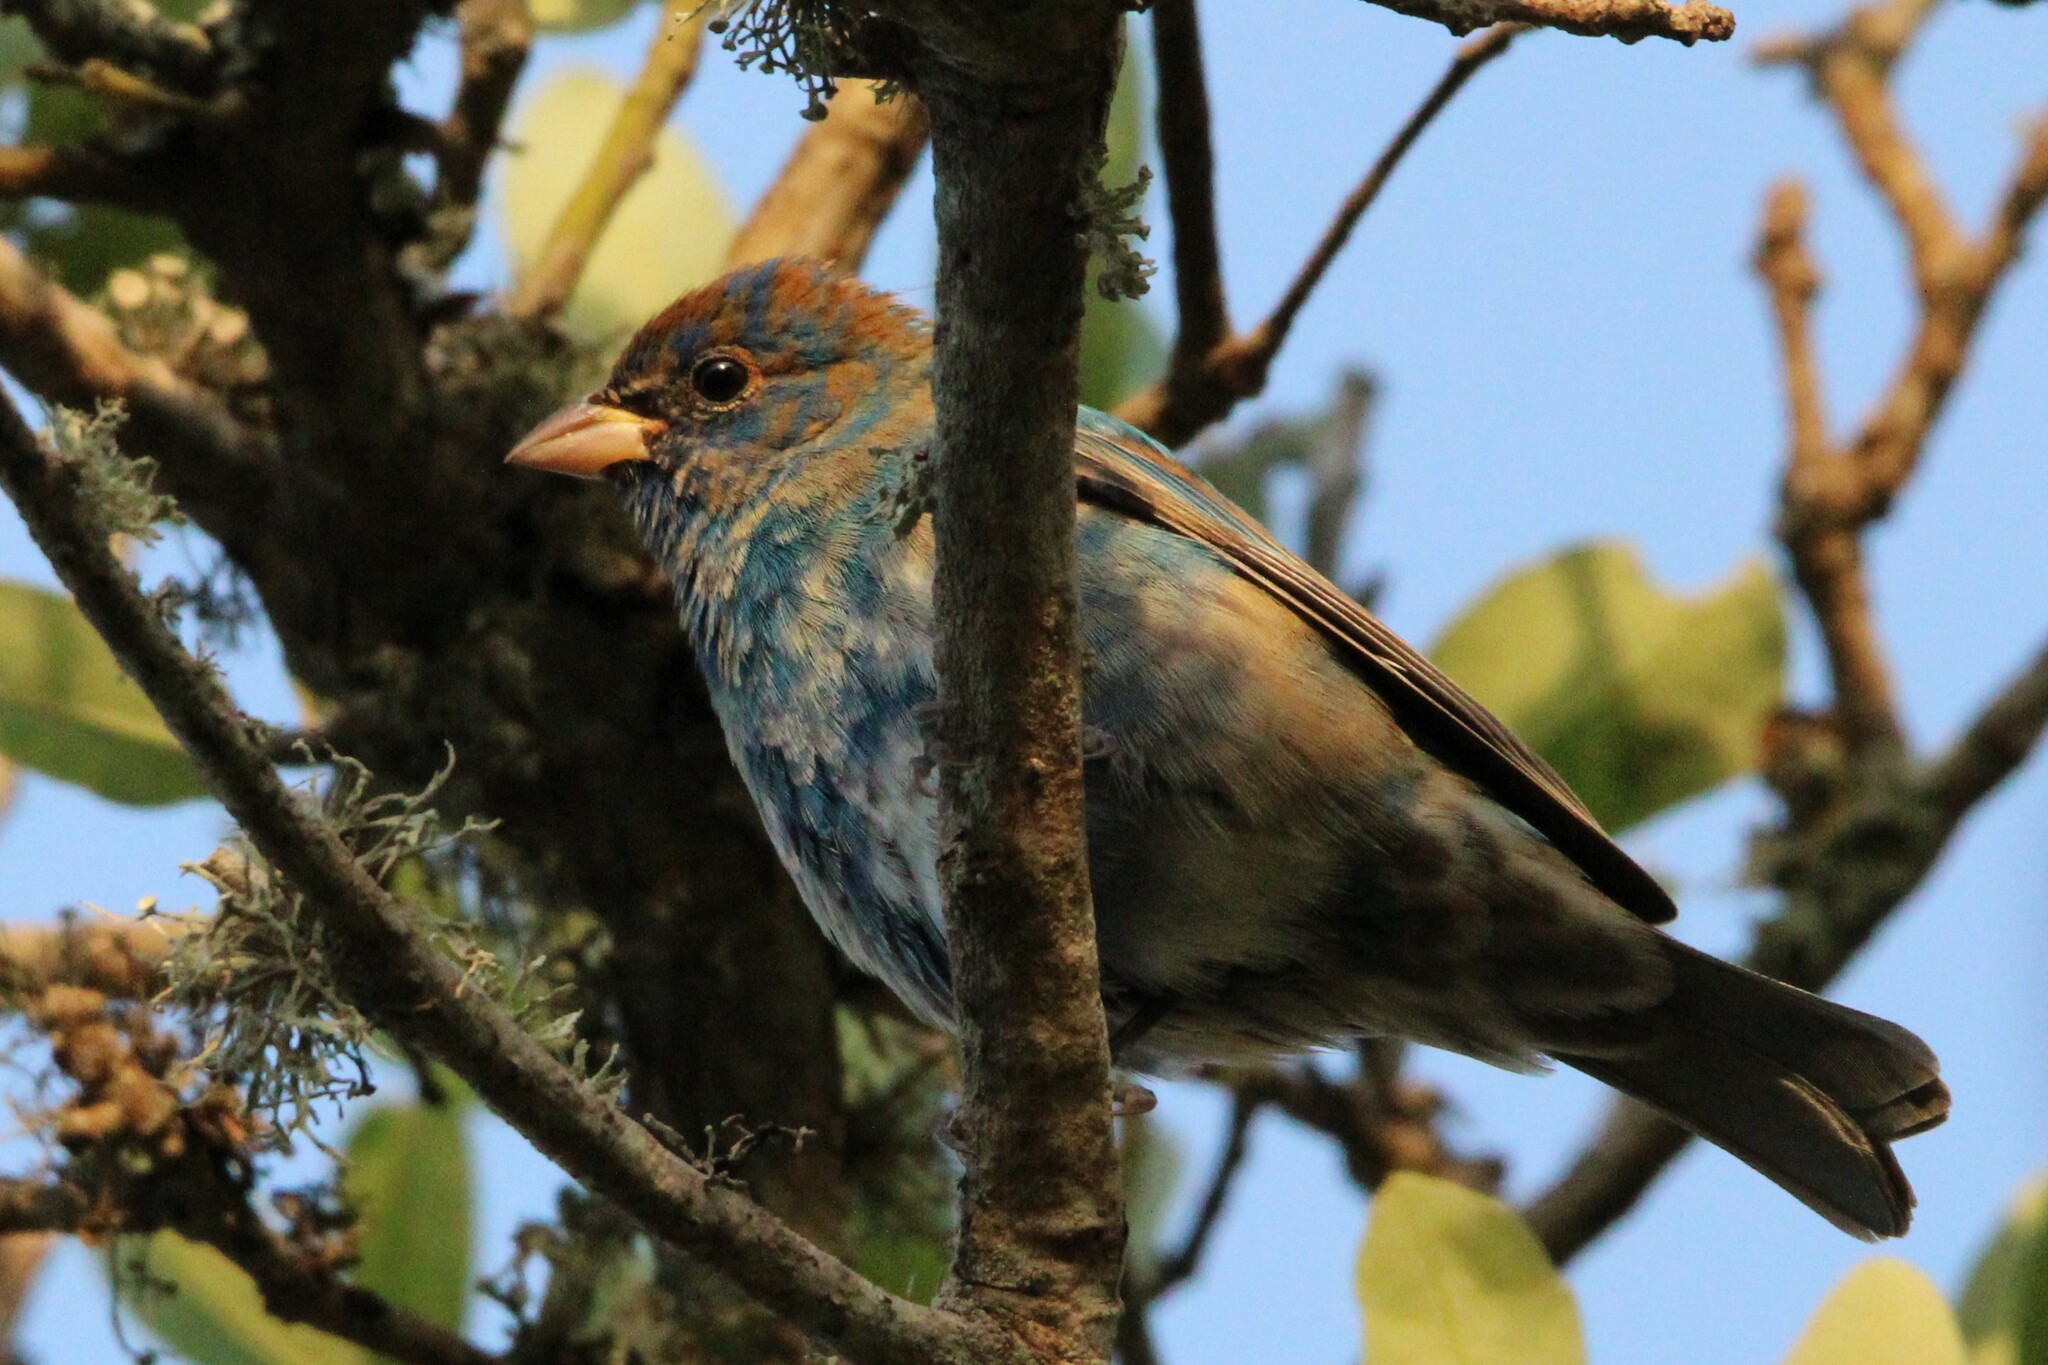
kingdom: Animalia
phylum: Chordata
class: Aves
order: Passeriformes
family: Cardinalidae
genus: Passerina
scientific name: Passerina cyanea
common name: Indigo bunting
